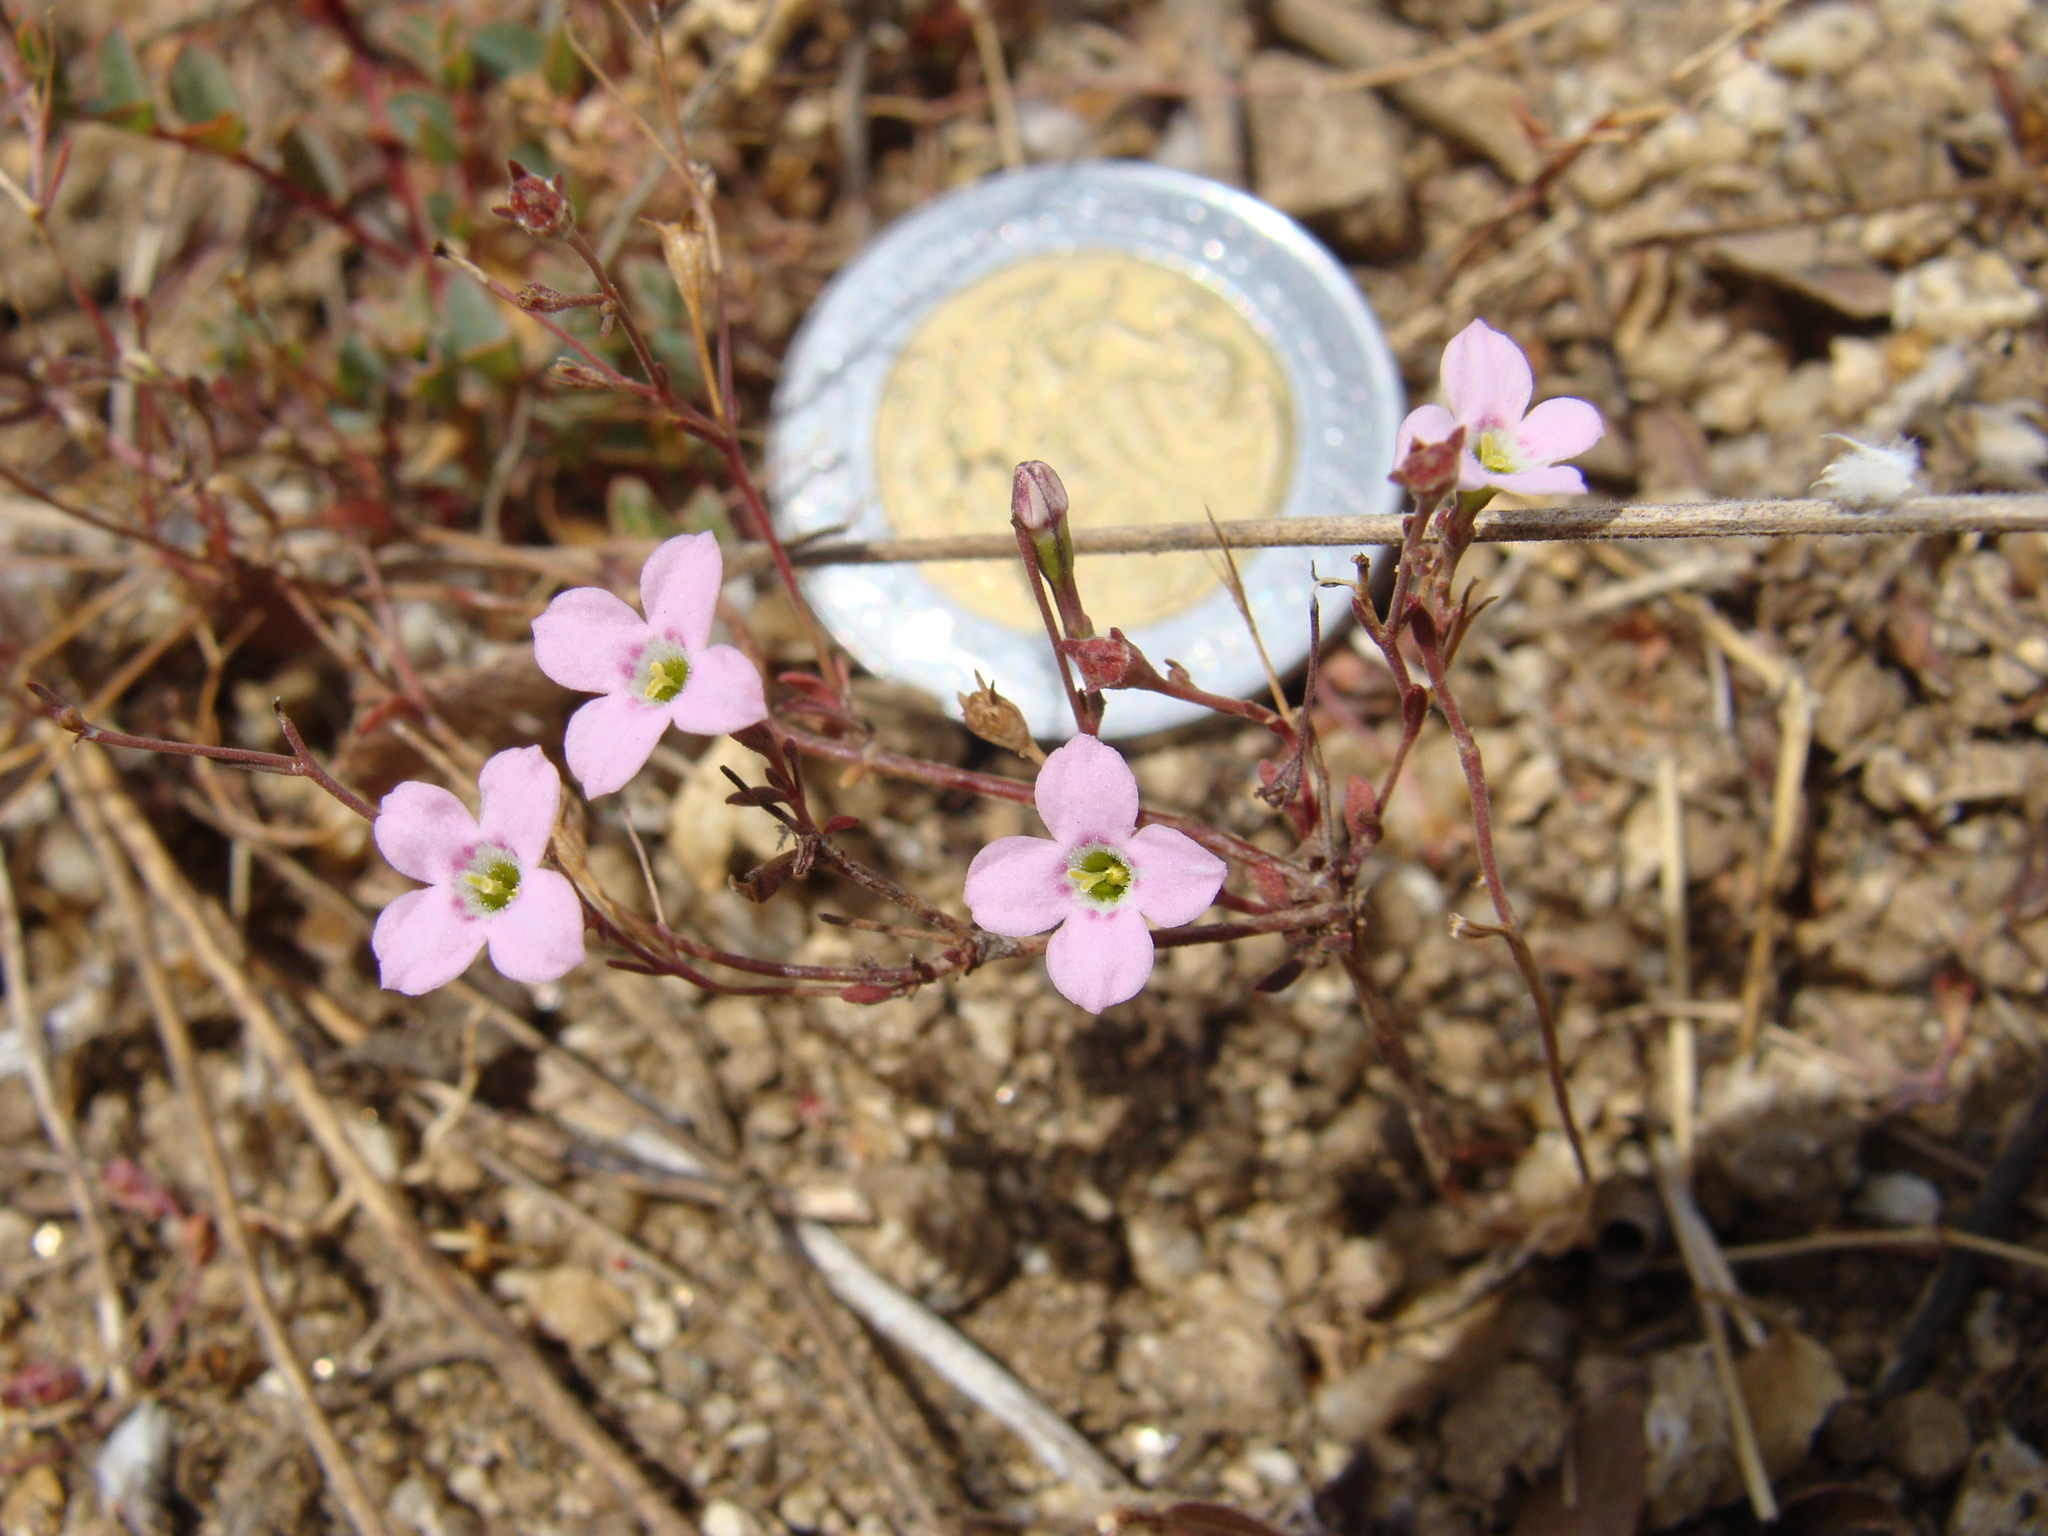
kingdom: Plantae
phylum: Tracheophyta
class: Magnoliopsida
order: Gentianales
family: Rubiaceae
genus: Stenotis
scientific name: Stenotis asperuloides
